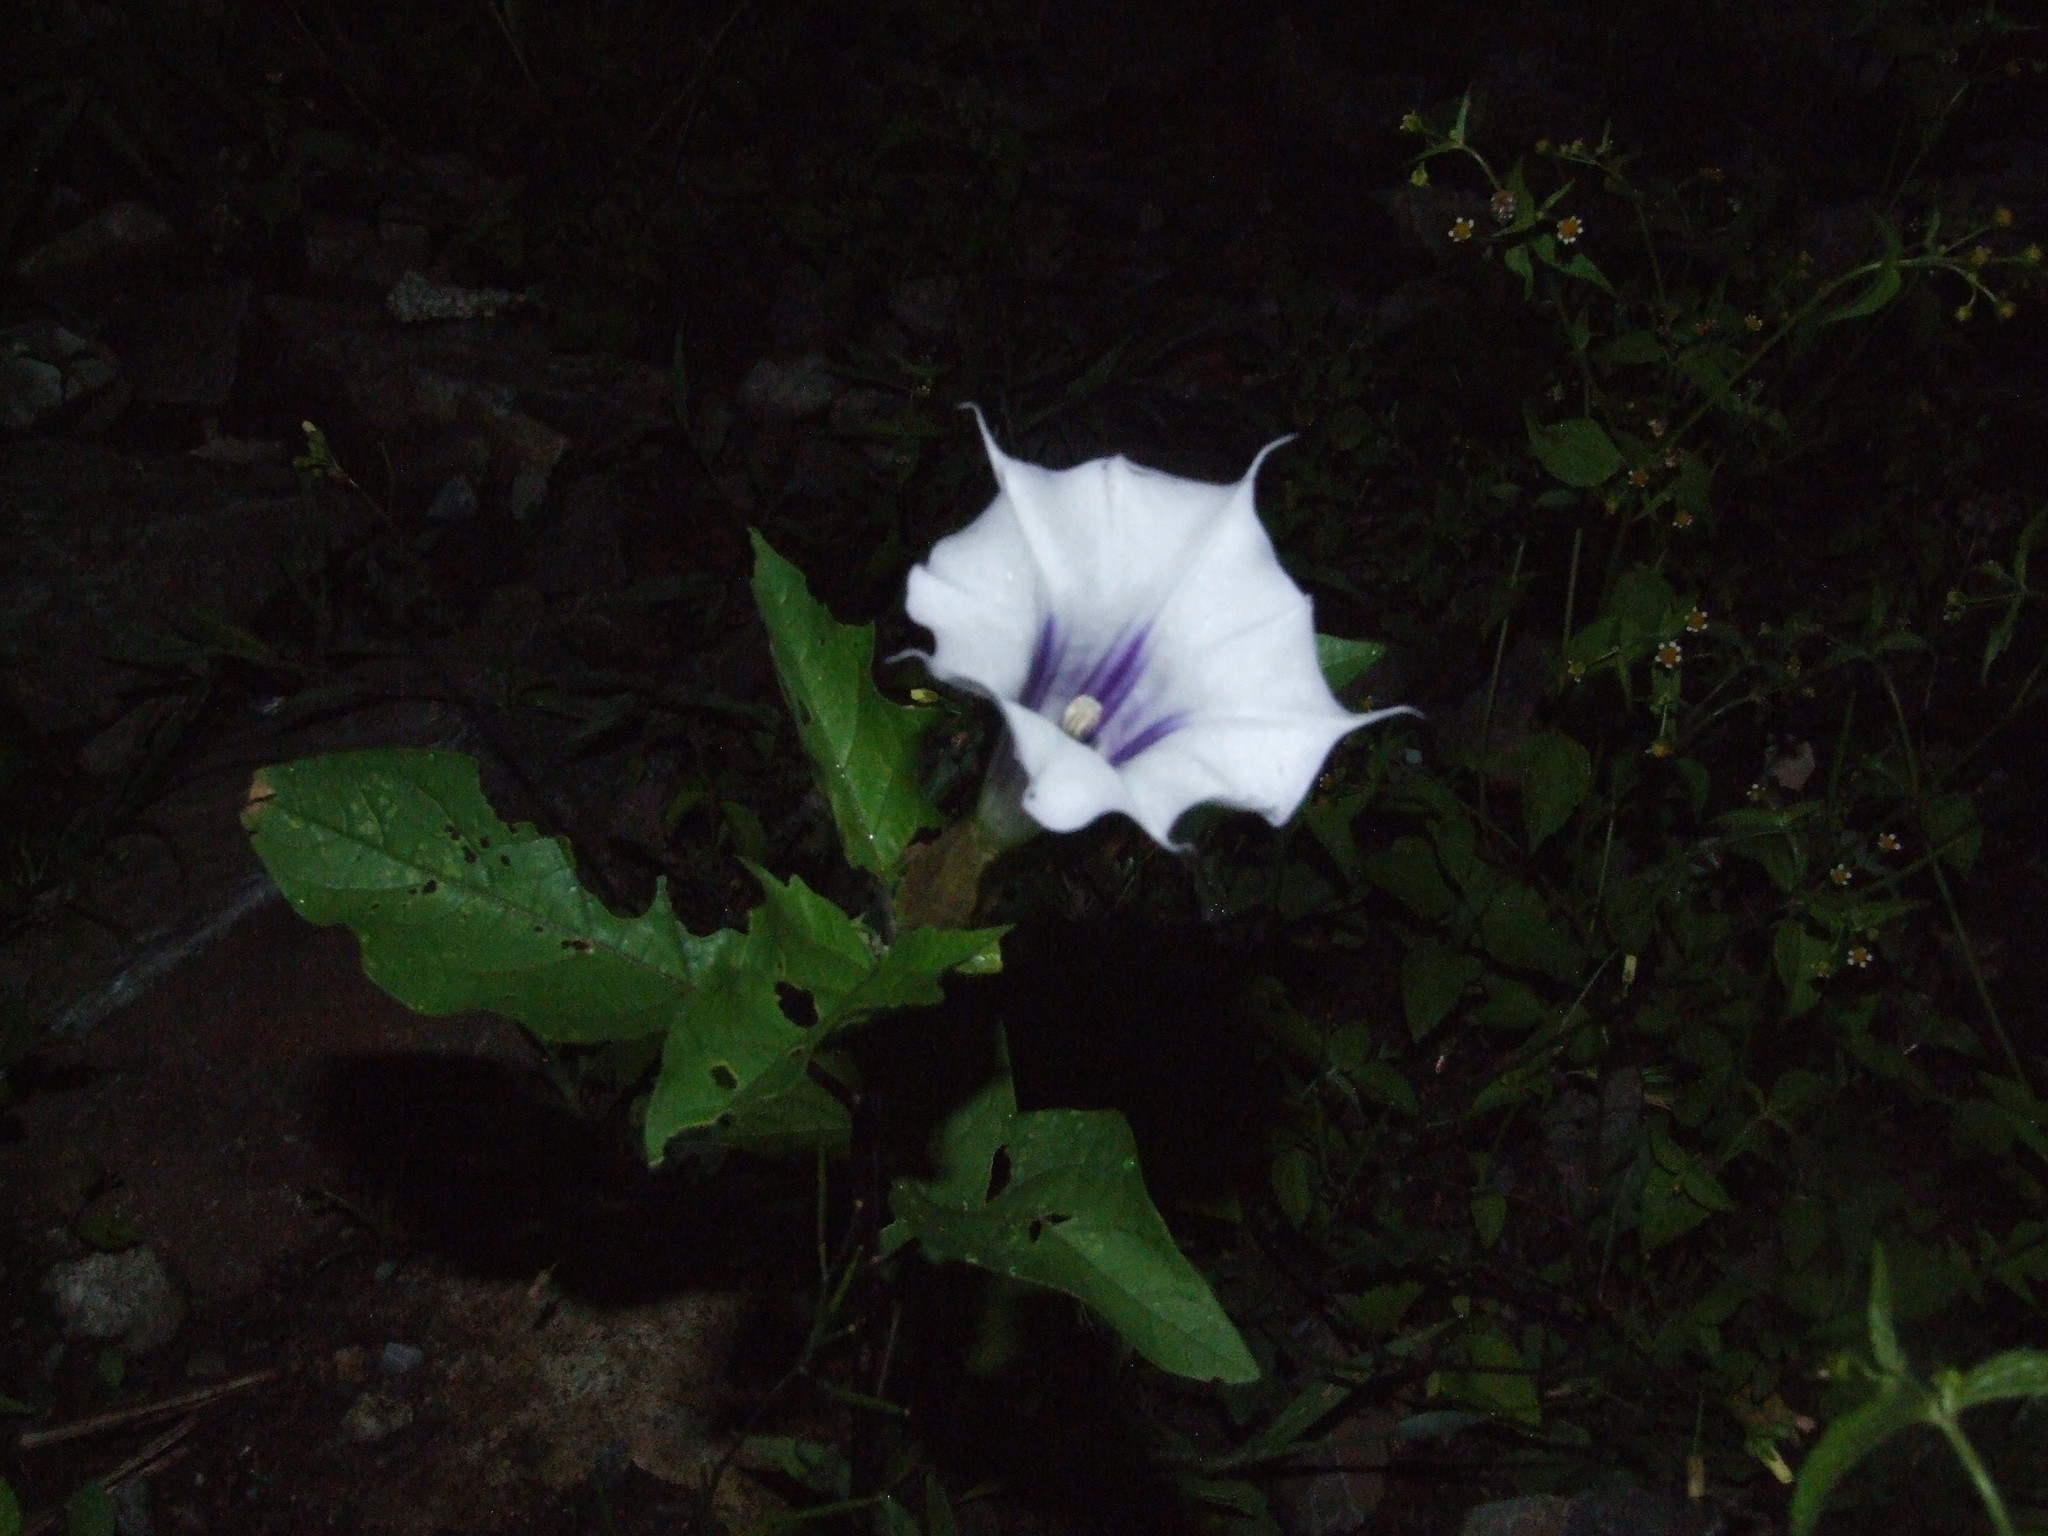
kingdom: Plantae
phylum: Tracheophyta
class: Magnoliopsida
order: Solanales
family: Solanaceae
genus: Datura
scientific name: Datura stramonium
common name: Thorn-apple
